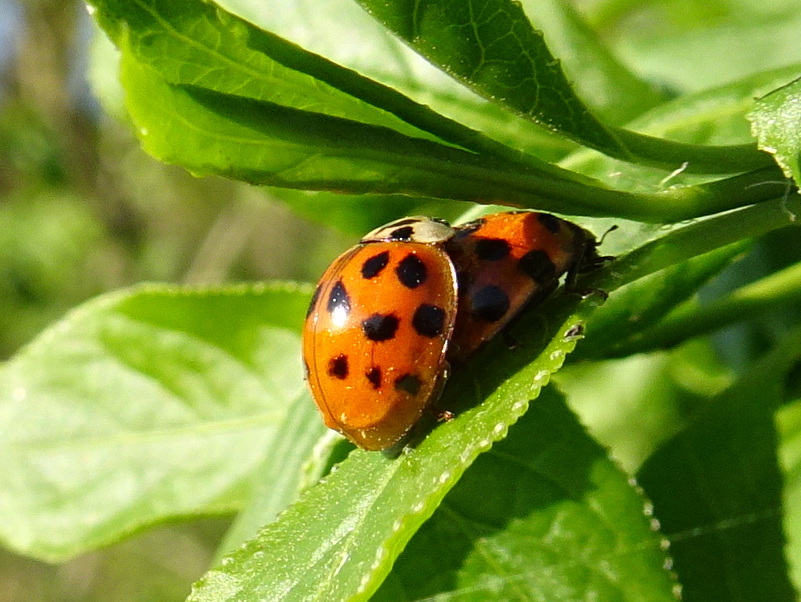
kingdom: Animalia
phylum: Arthropoda
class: Insecta
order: Coleoptera
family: Coccinellidae
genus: Harmonia
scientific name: Harmonia axyridis
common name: Harlequin ladybird
